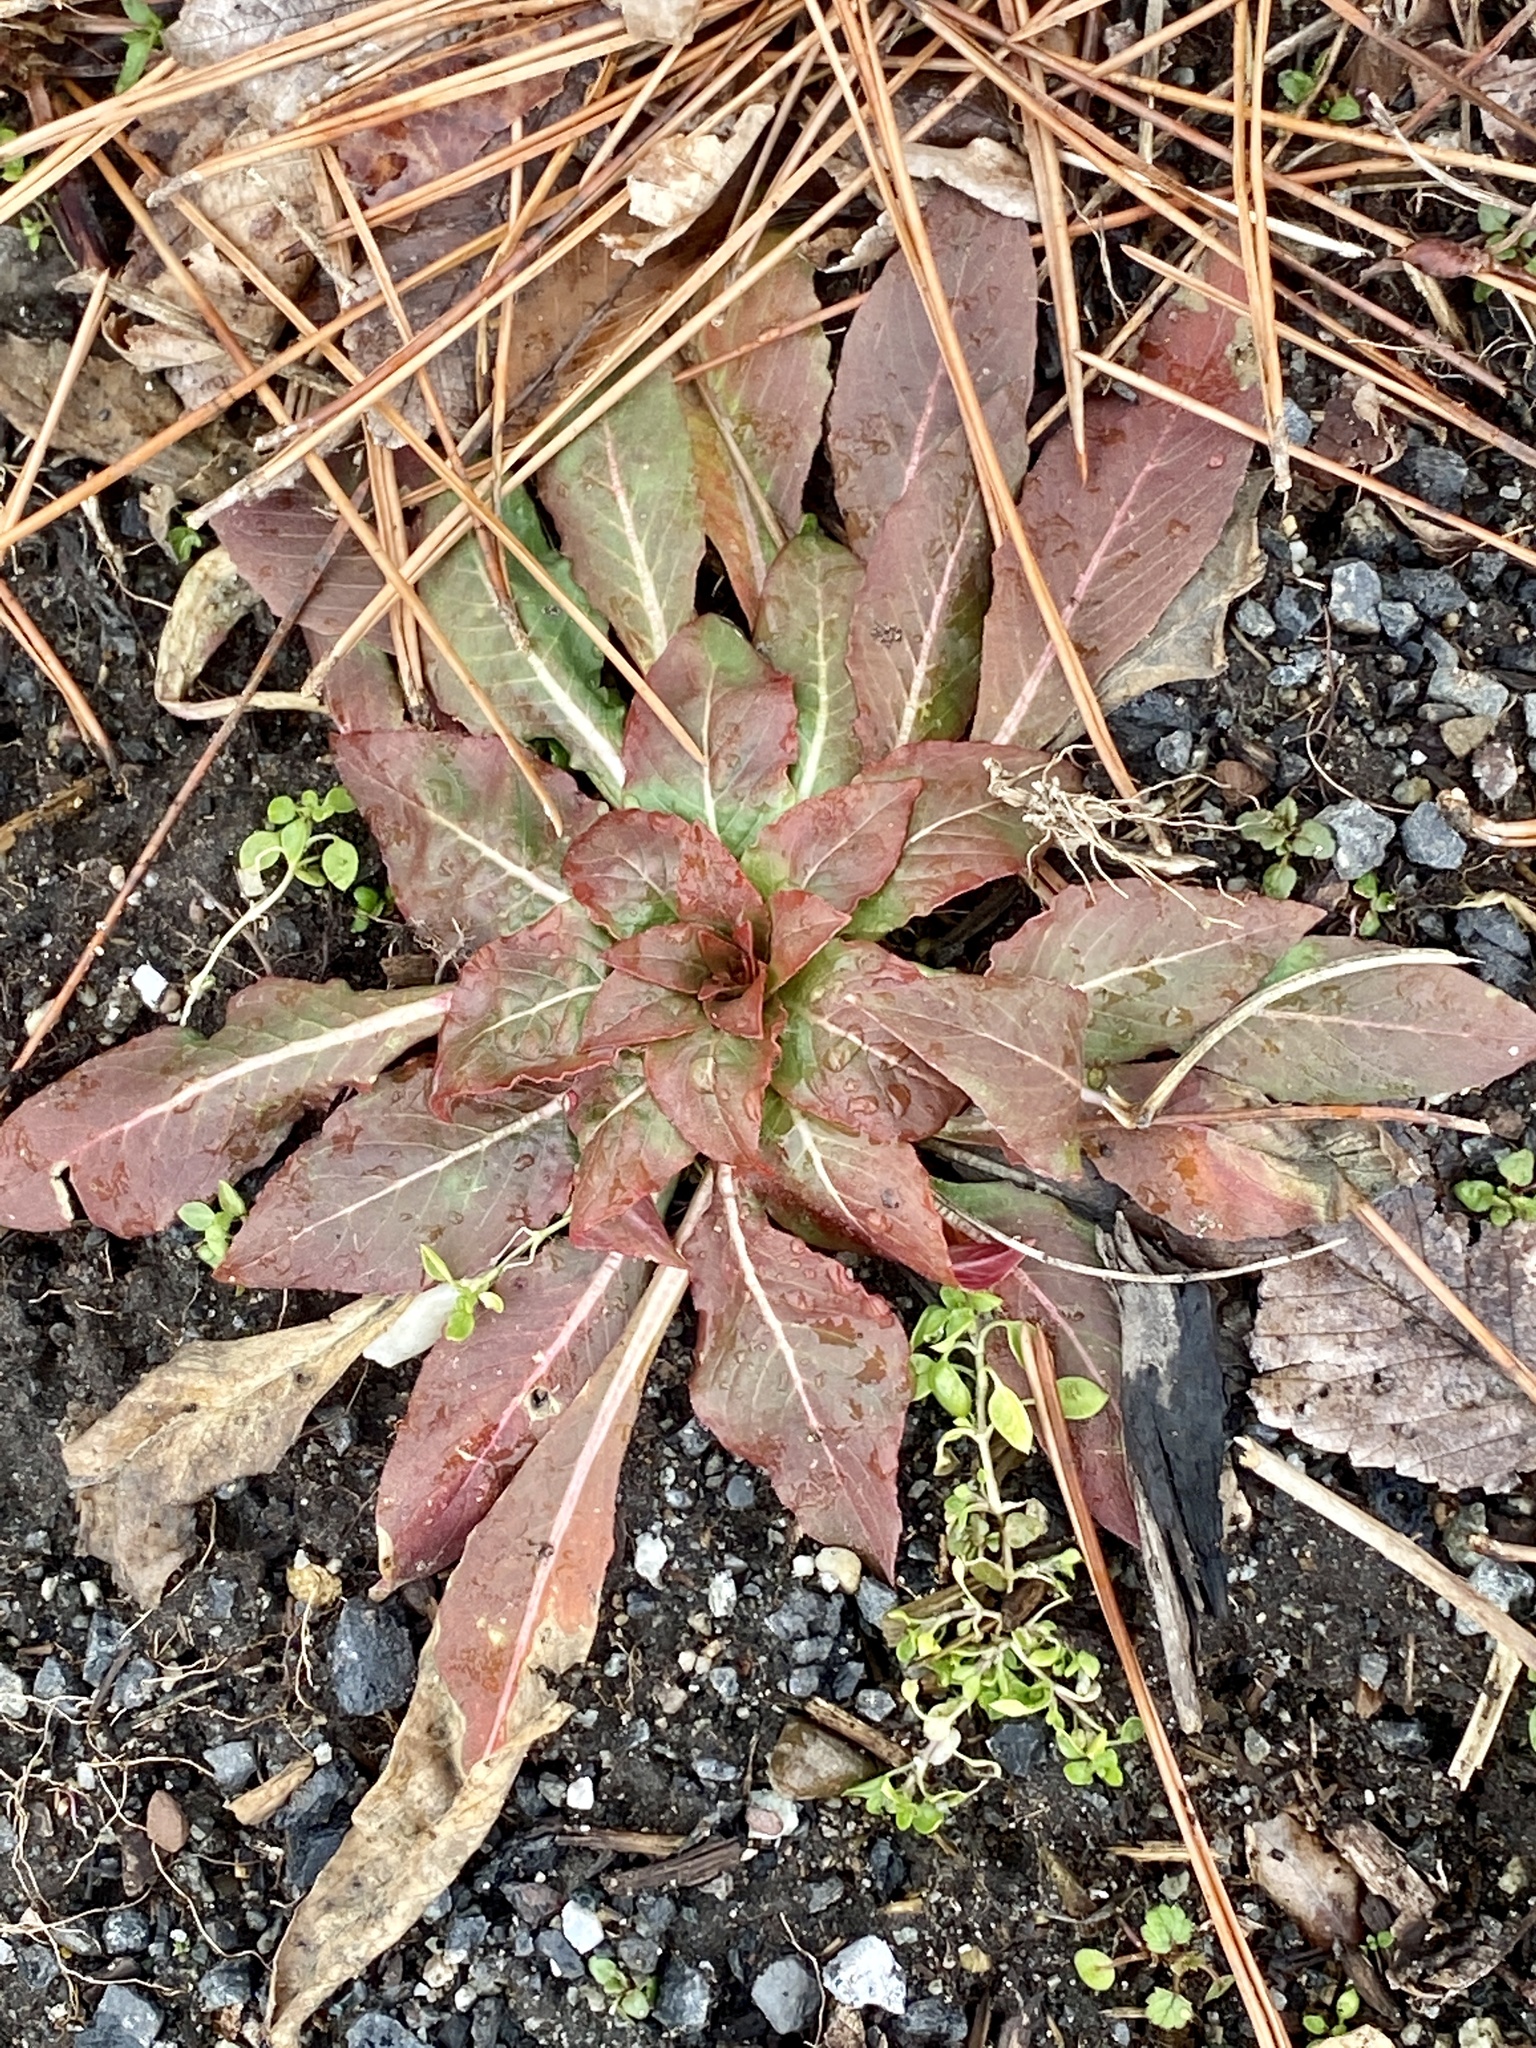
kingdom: Plantae
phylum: Tracheophyta
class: Magnoliopsida
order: Myrtales
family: Onagraceae
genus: Oenothera
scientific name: Oenothera biennis
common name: Common evening-primrose
